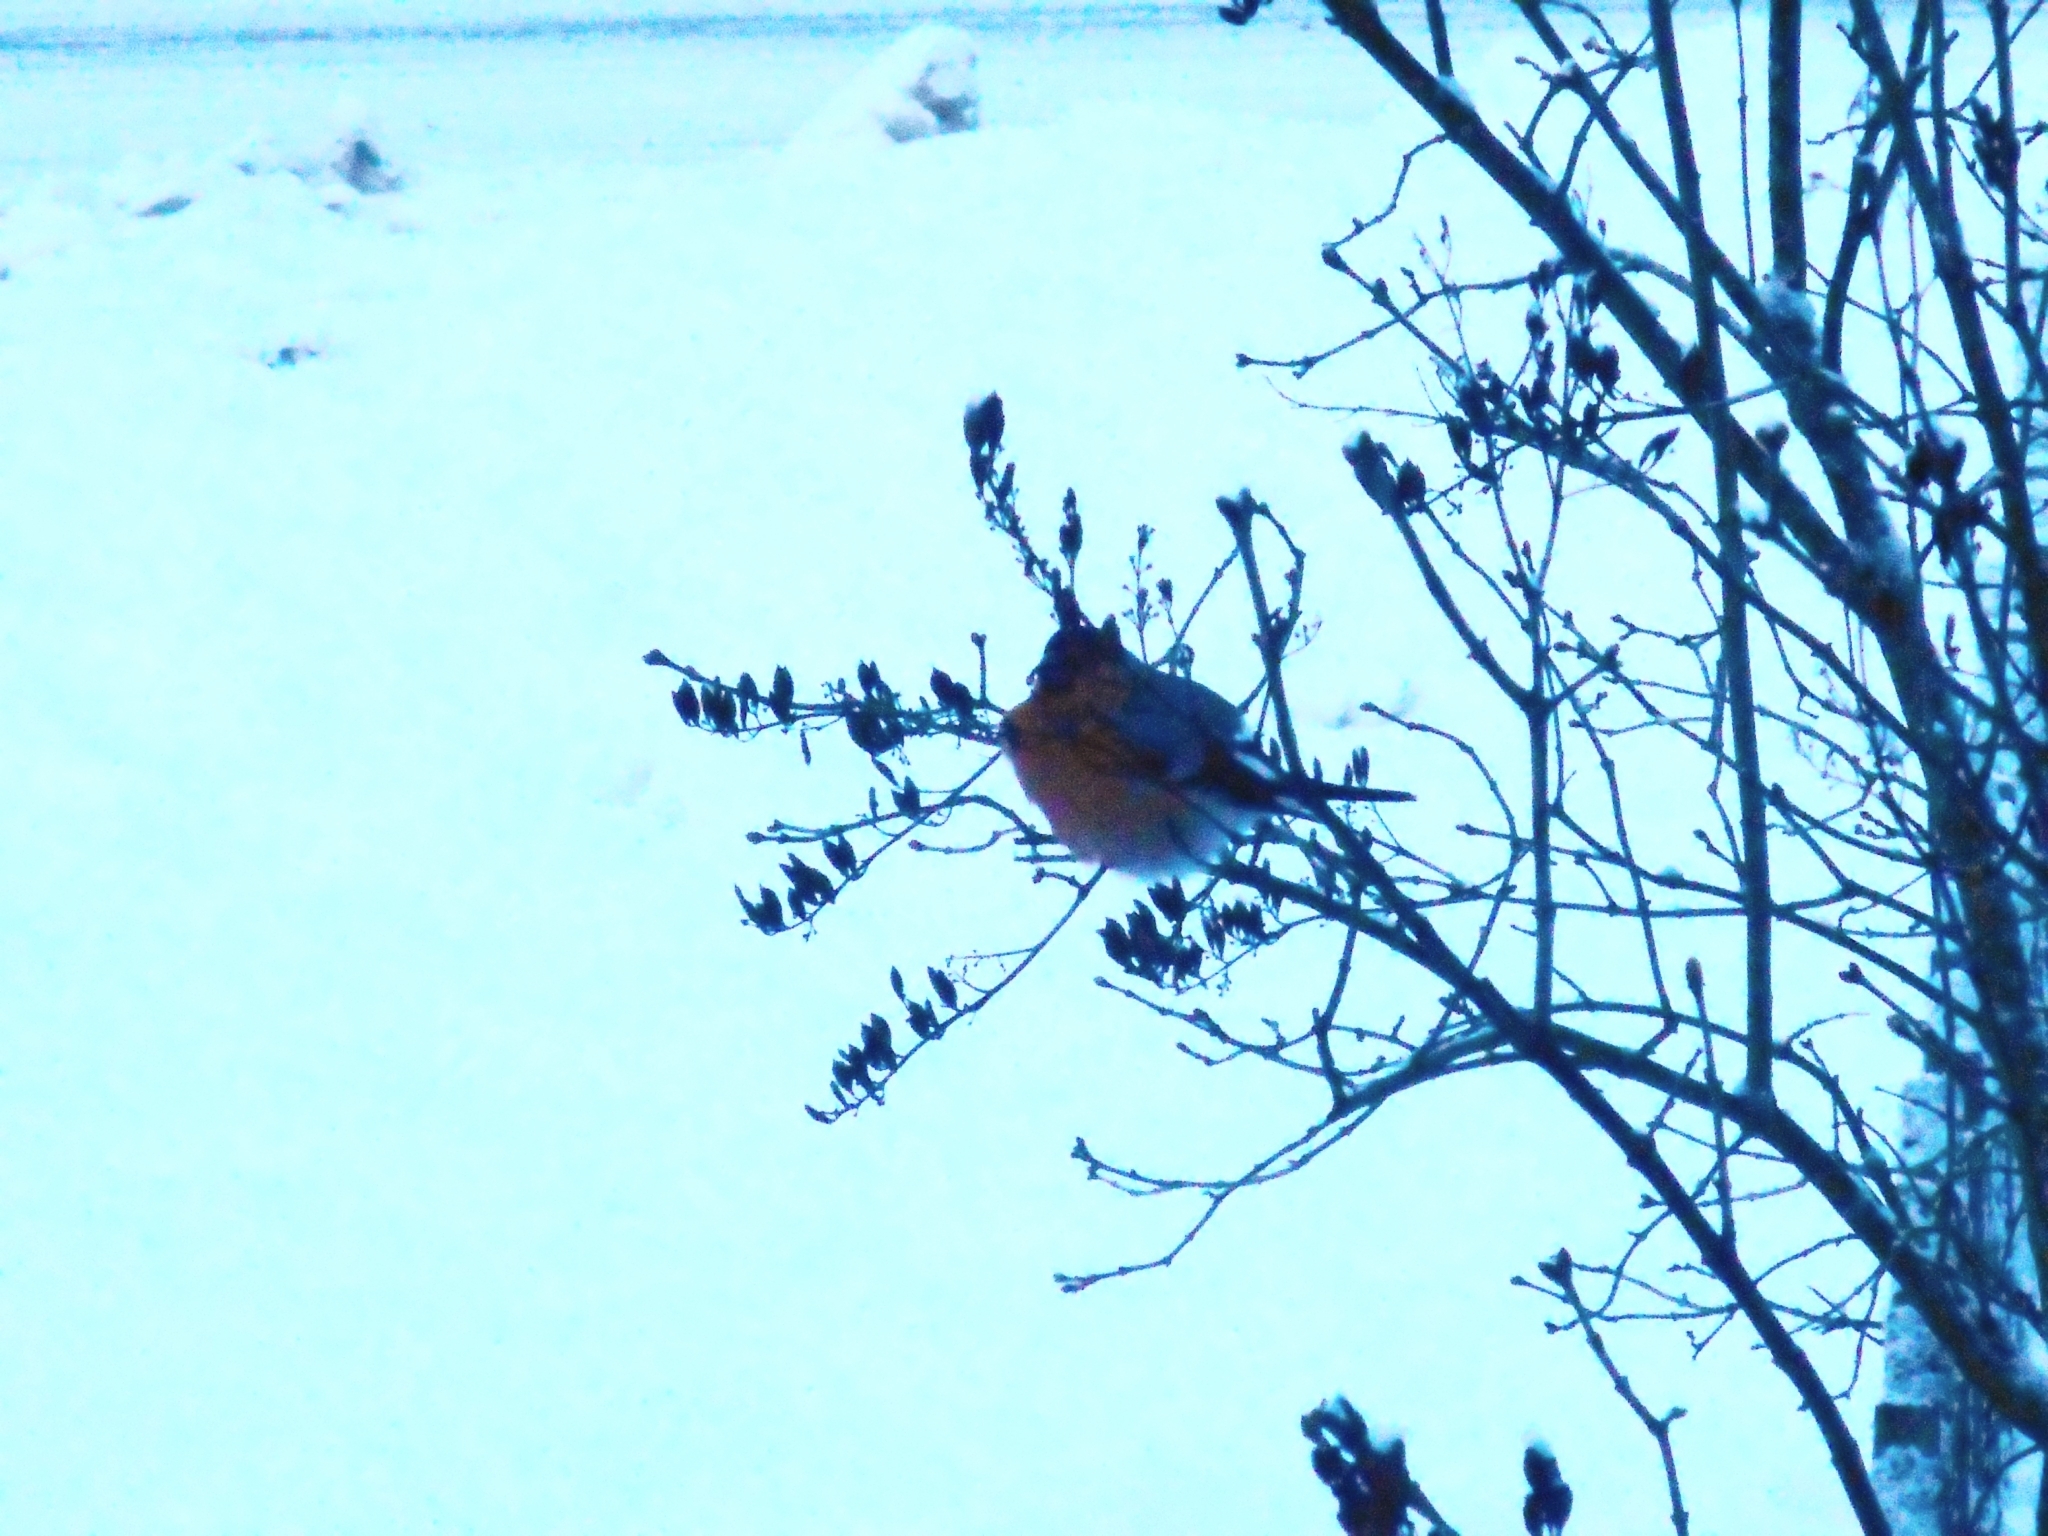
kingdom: Animalia
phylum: Chordata
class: Aves
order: Passeriformes
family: Fringillidae
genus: Pyrrhula
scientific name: Pyrrhula pyrrhula
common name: Eurasian bullfinch
